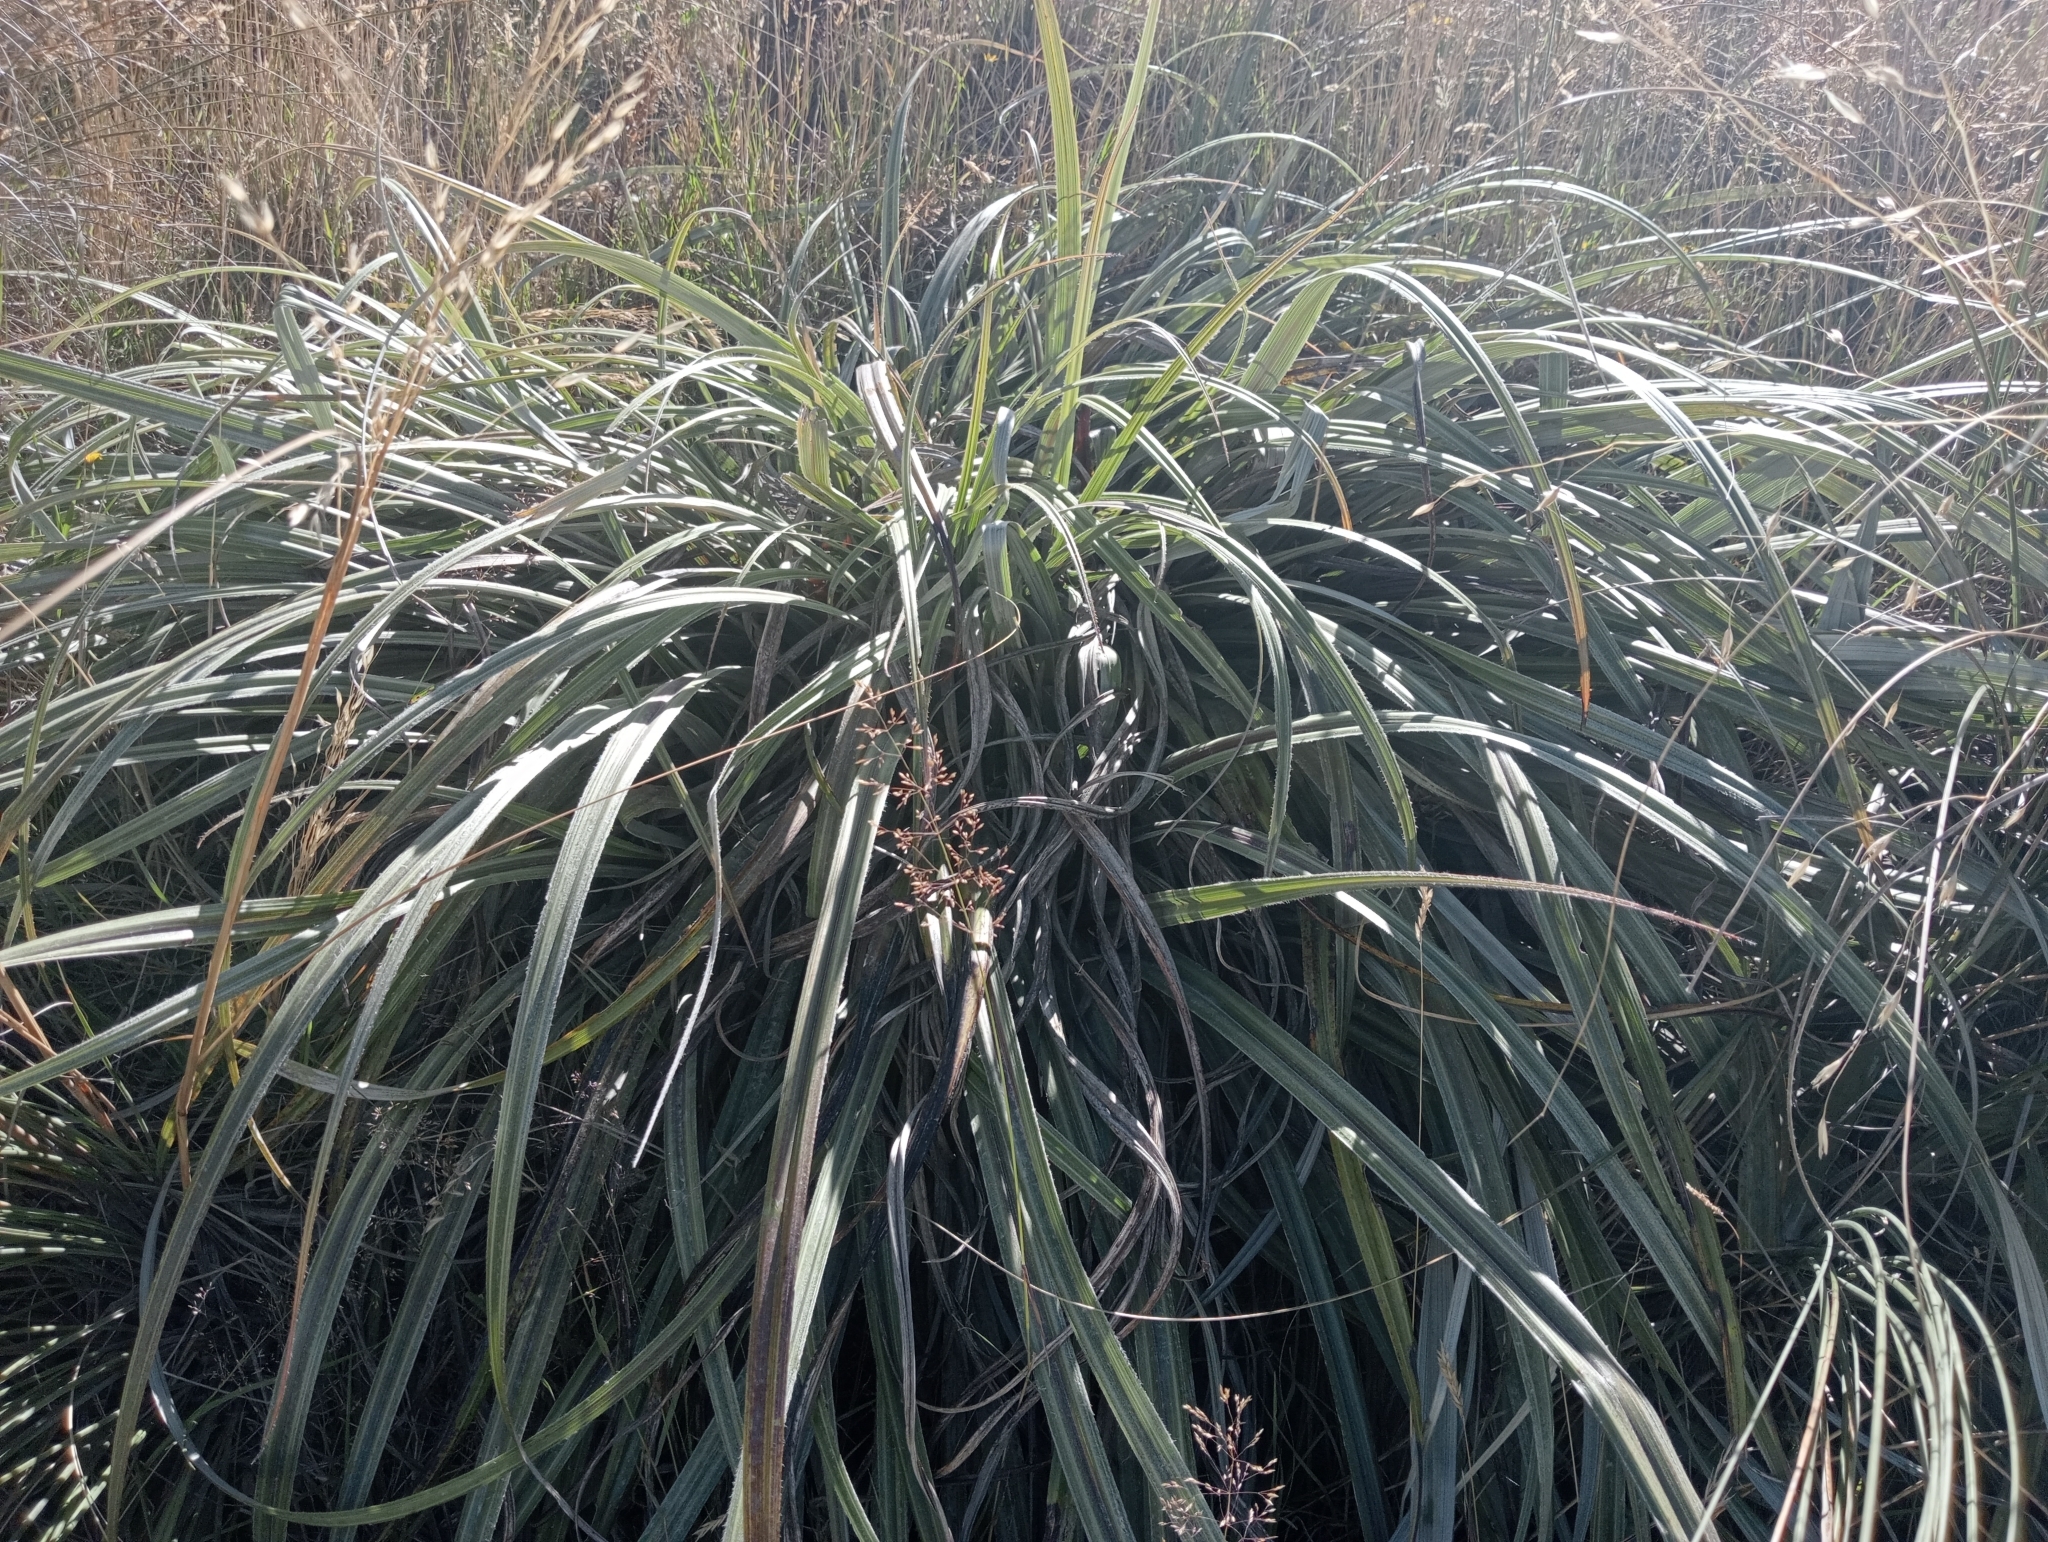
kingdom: Plantae
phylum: Tracheophyta
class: Liliopsida
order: Asparagales
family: Asteliaceae
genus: Astelia
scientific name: Astelia nervosa
